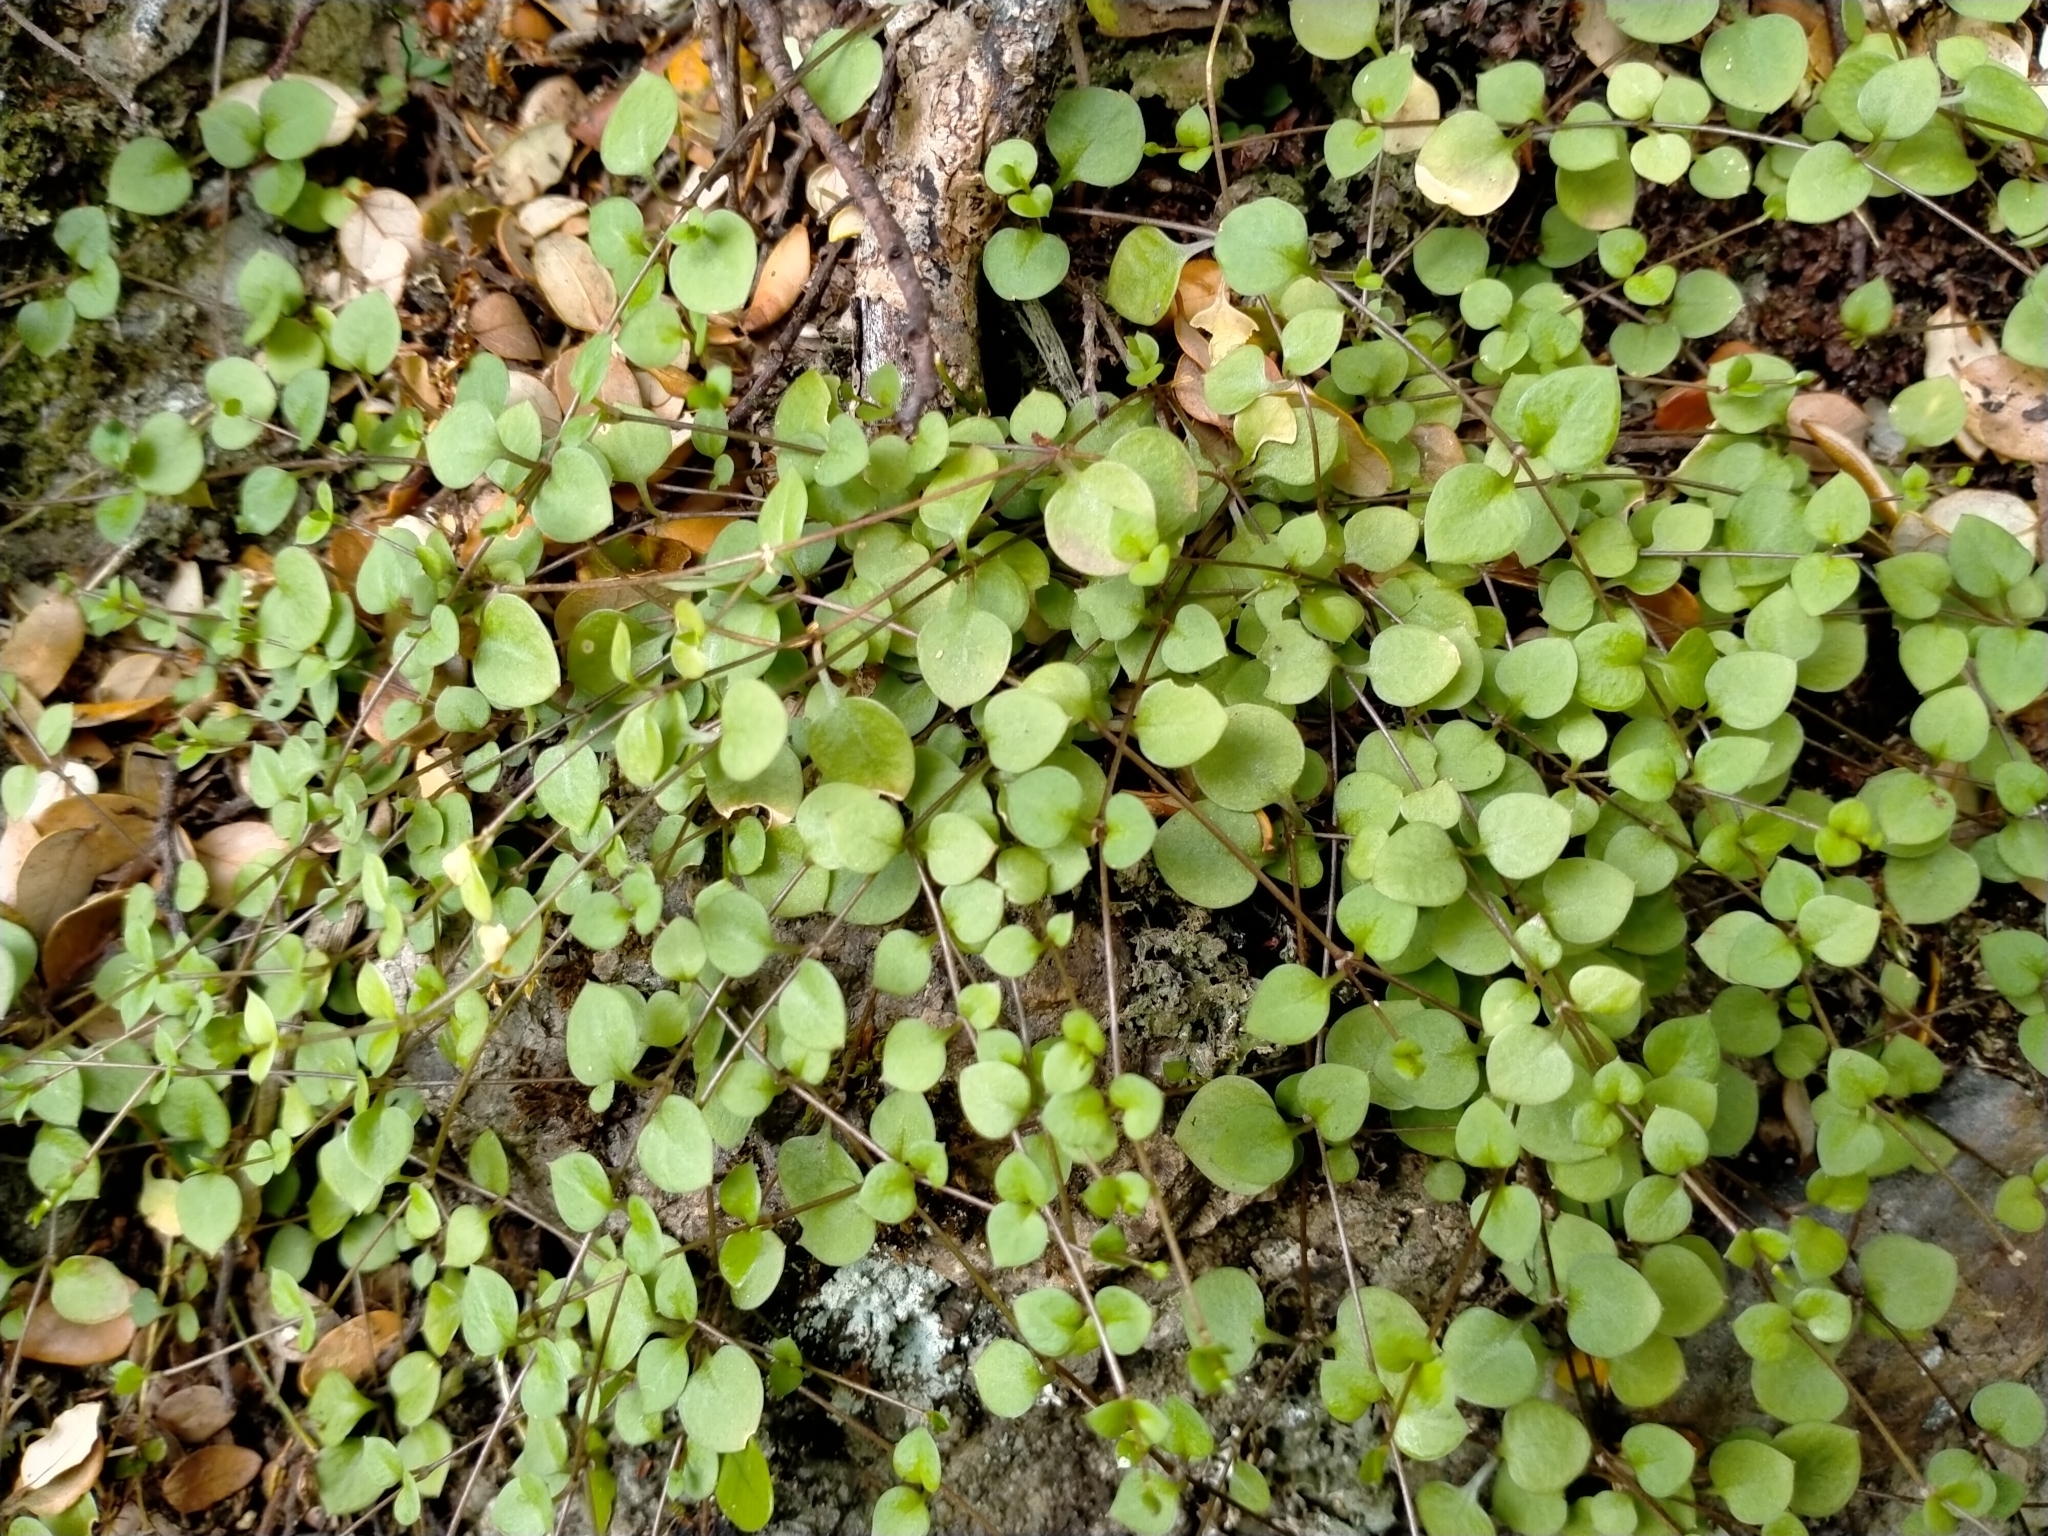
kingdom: Plantae
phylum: Tracheophyta
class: Magnoliopsida
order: Caryophyllales
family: Caryophyllaceae
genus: Stellaria
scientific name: Stellaria parviflora
